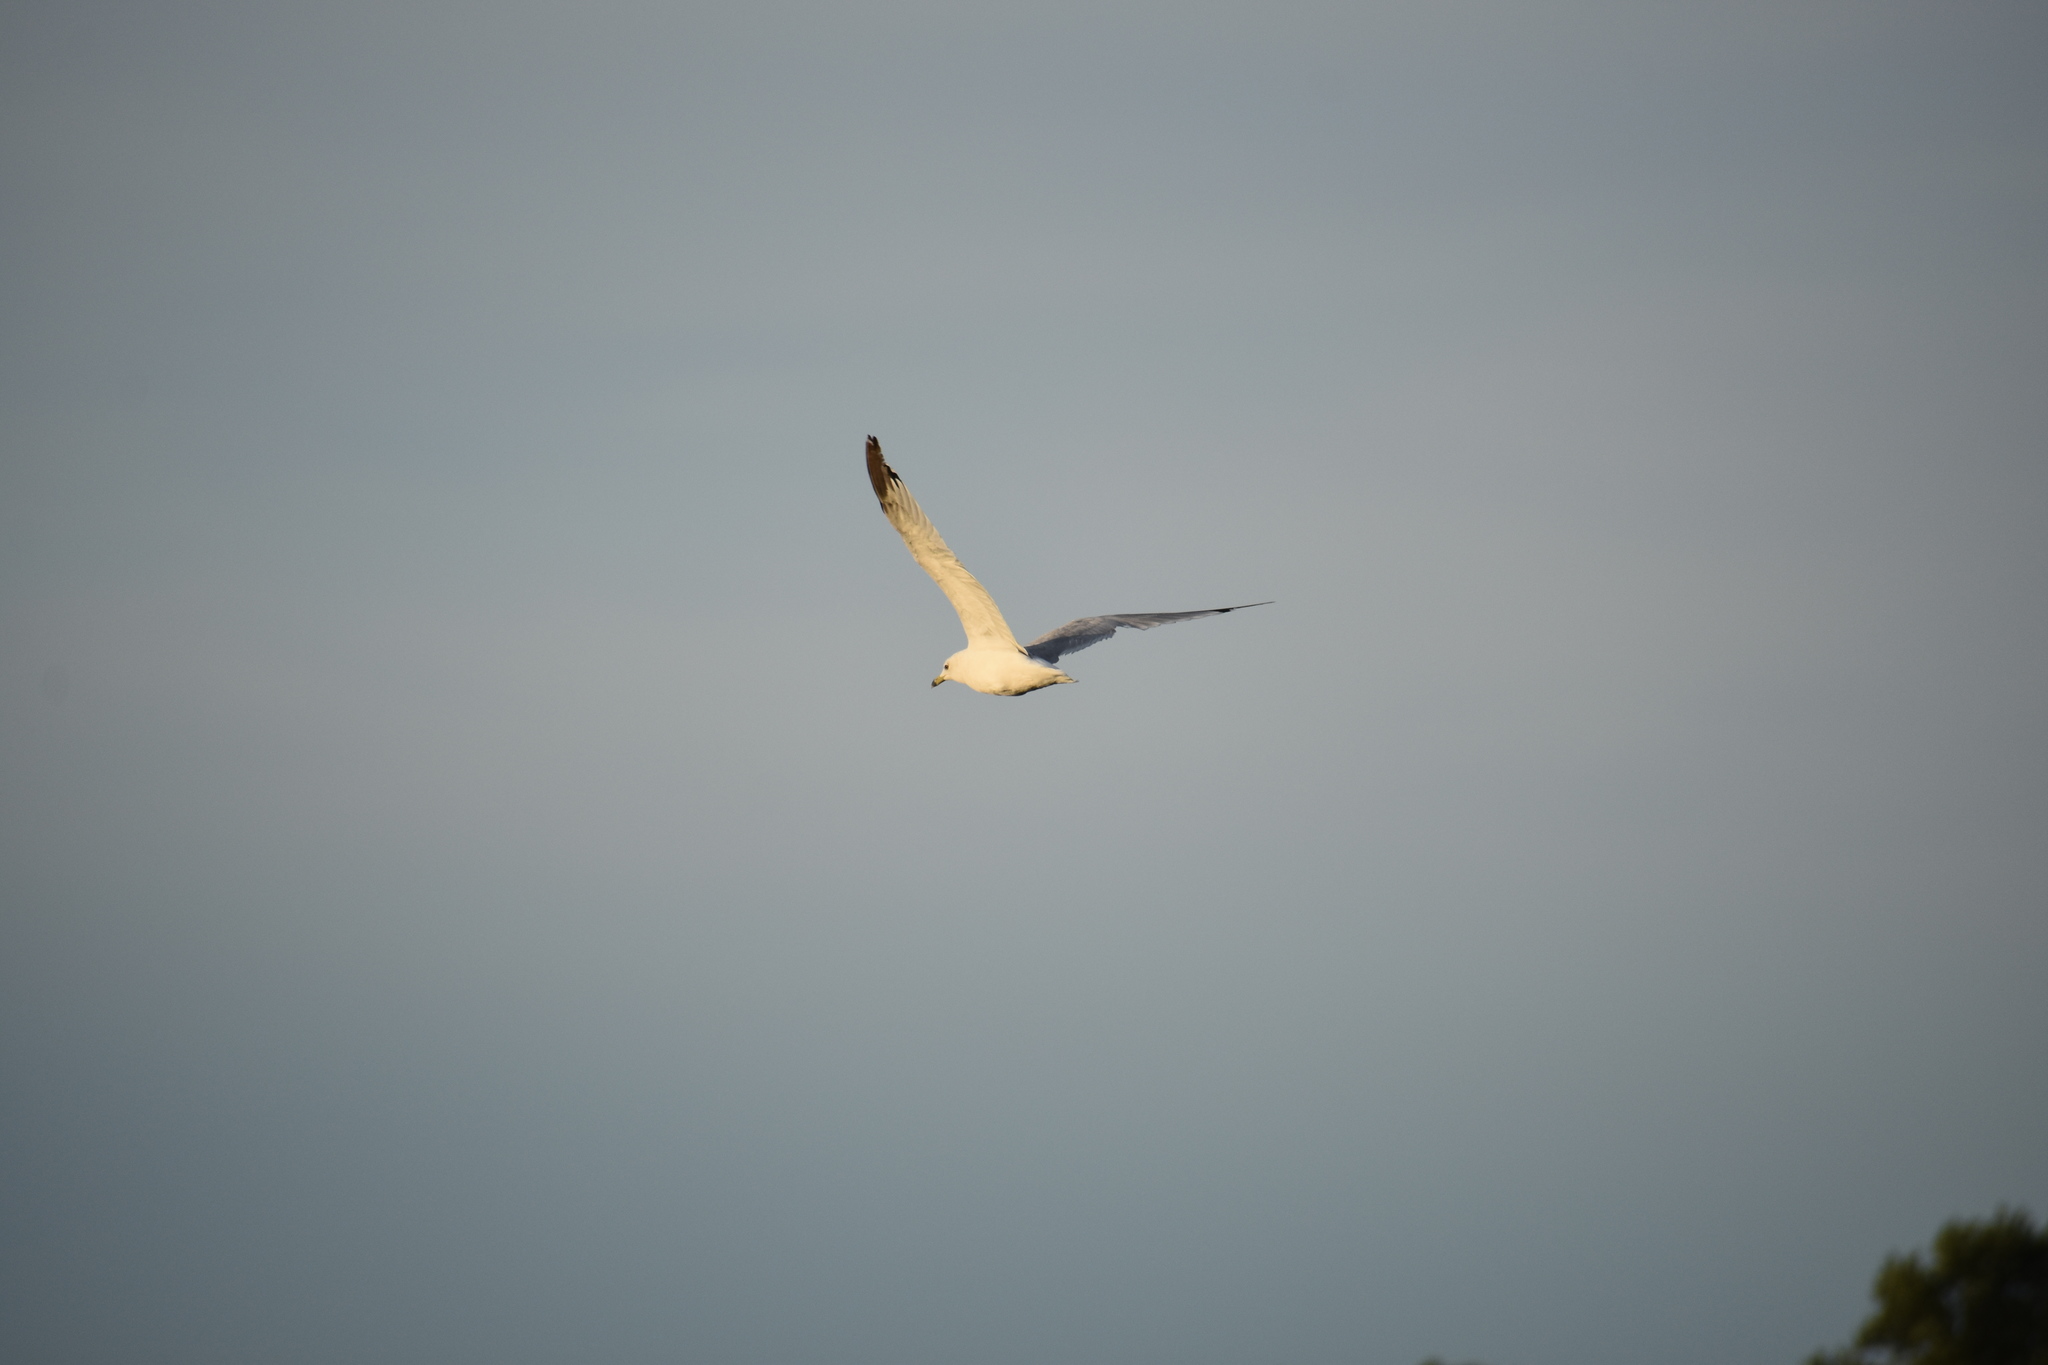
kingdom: Animalia
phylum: Chordata
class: Aves
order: Charadriiformes
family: Laridae
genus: Larus
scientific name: Larus delawarensis
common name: Ring-billed gull
